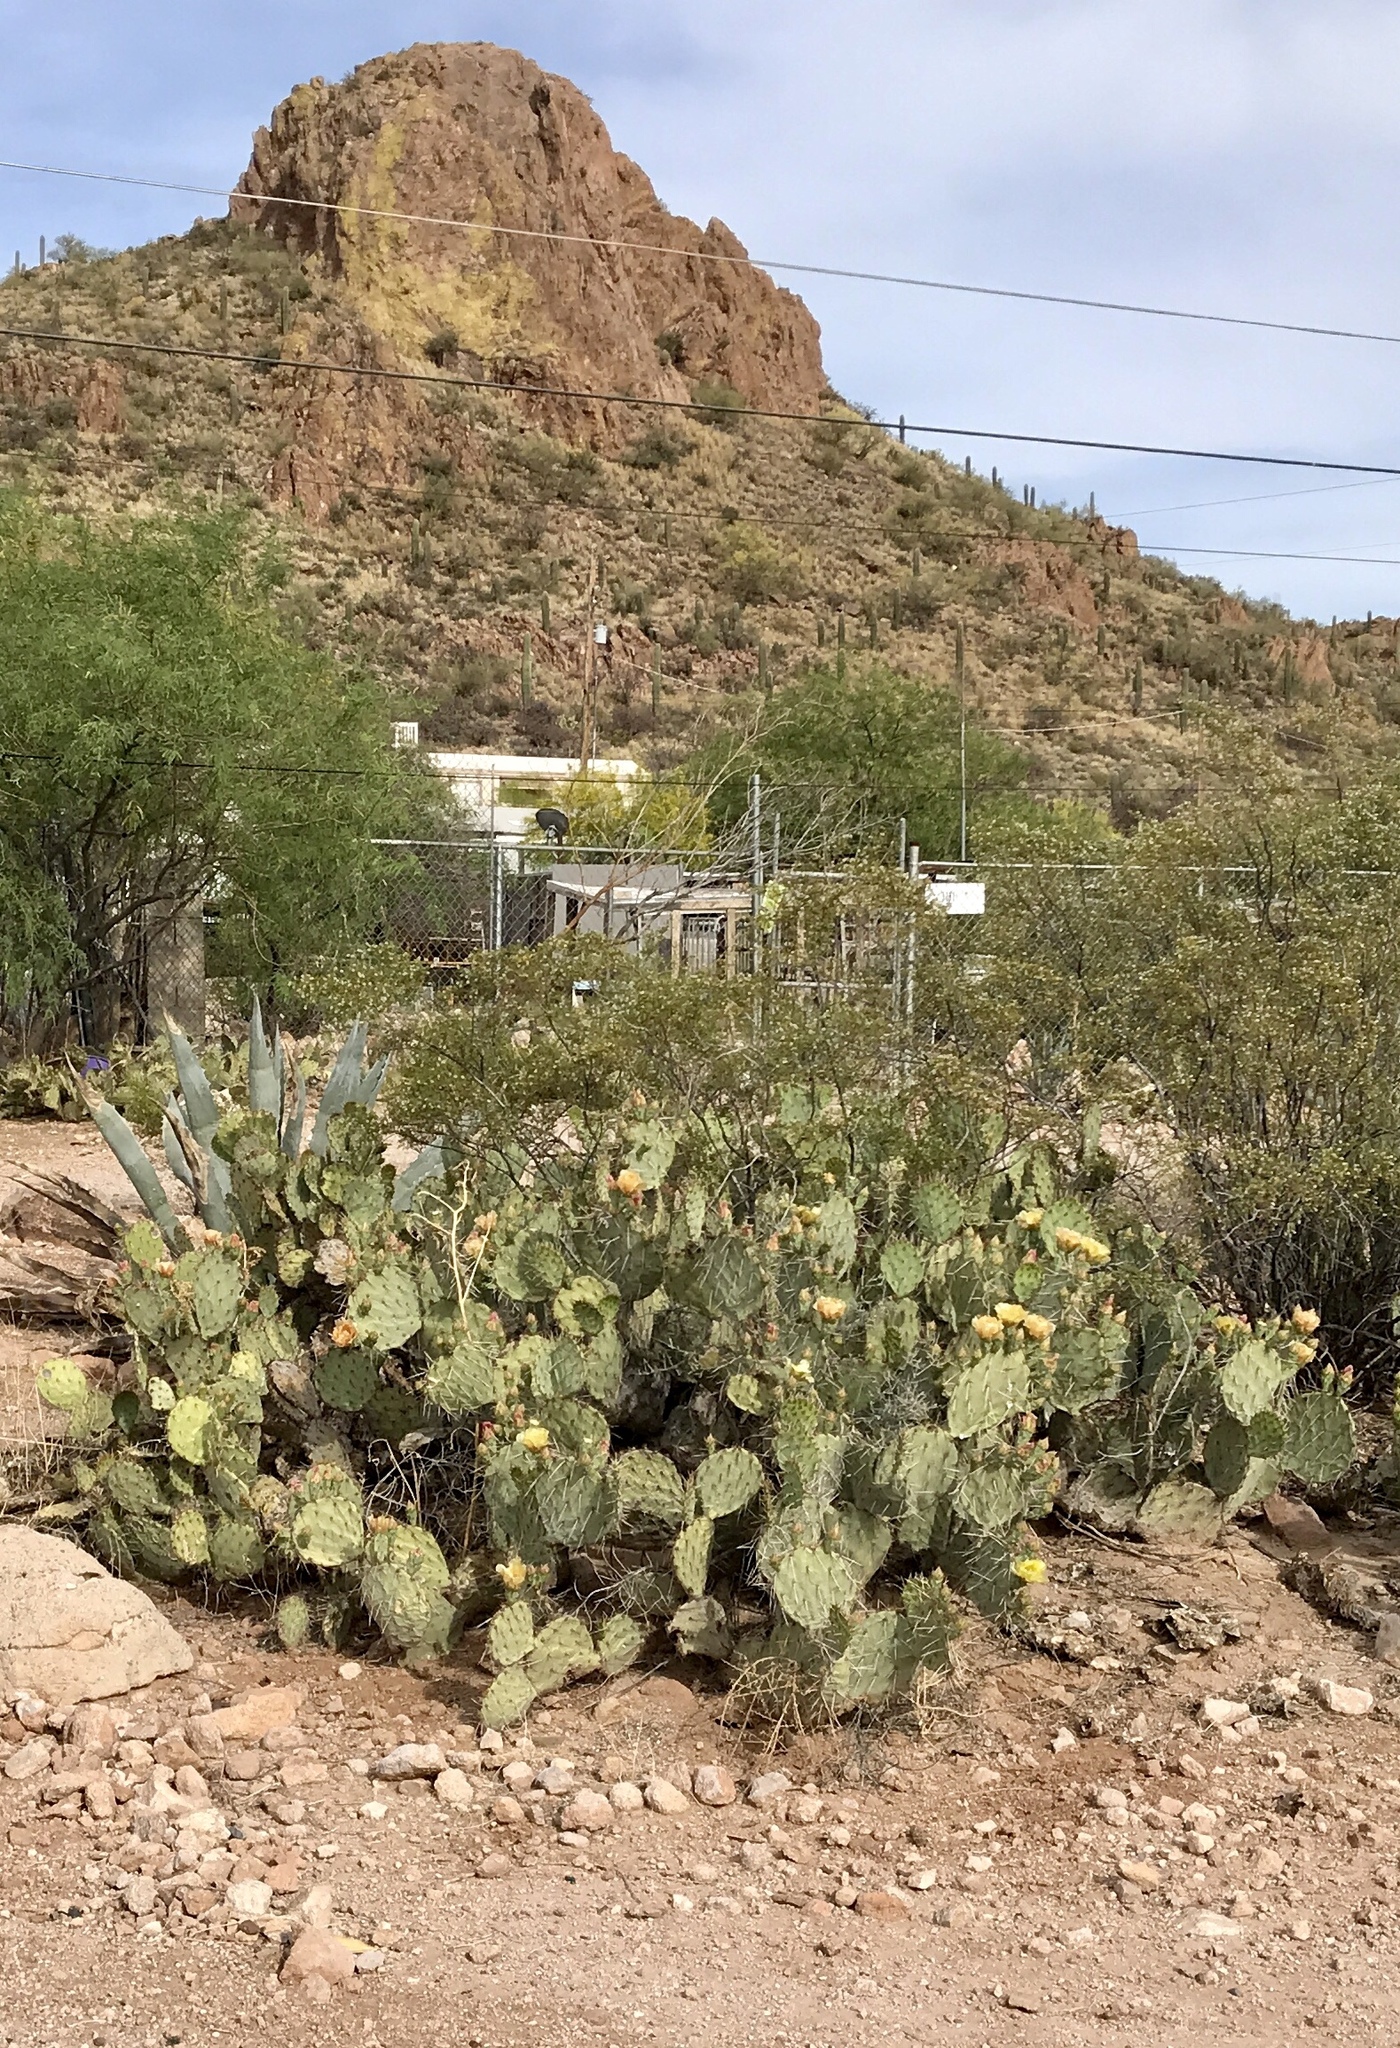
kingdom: Plantae
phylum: Tracheophyta
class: Magnoliopsida
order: Caryophyllales
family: Cactaceae
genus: Opuntia
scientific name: Opuntia engelmannii
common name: Cactus-apple
